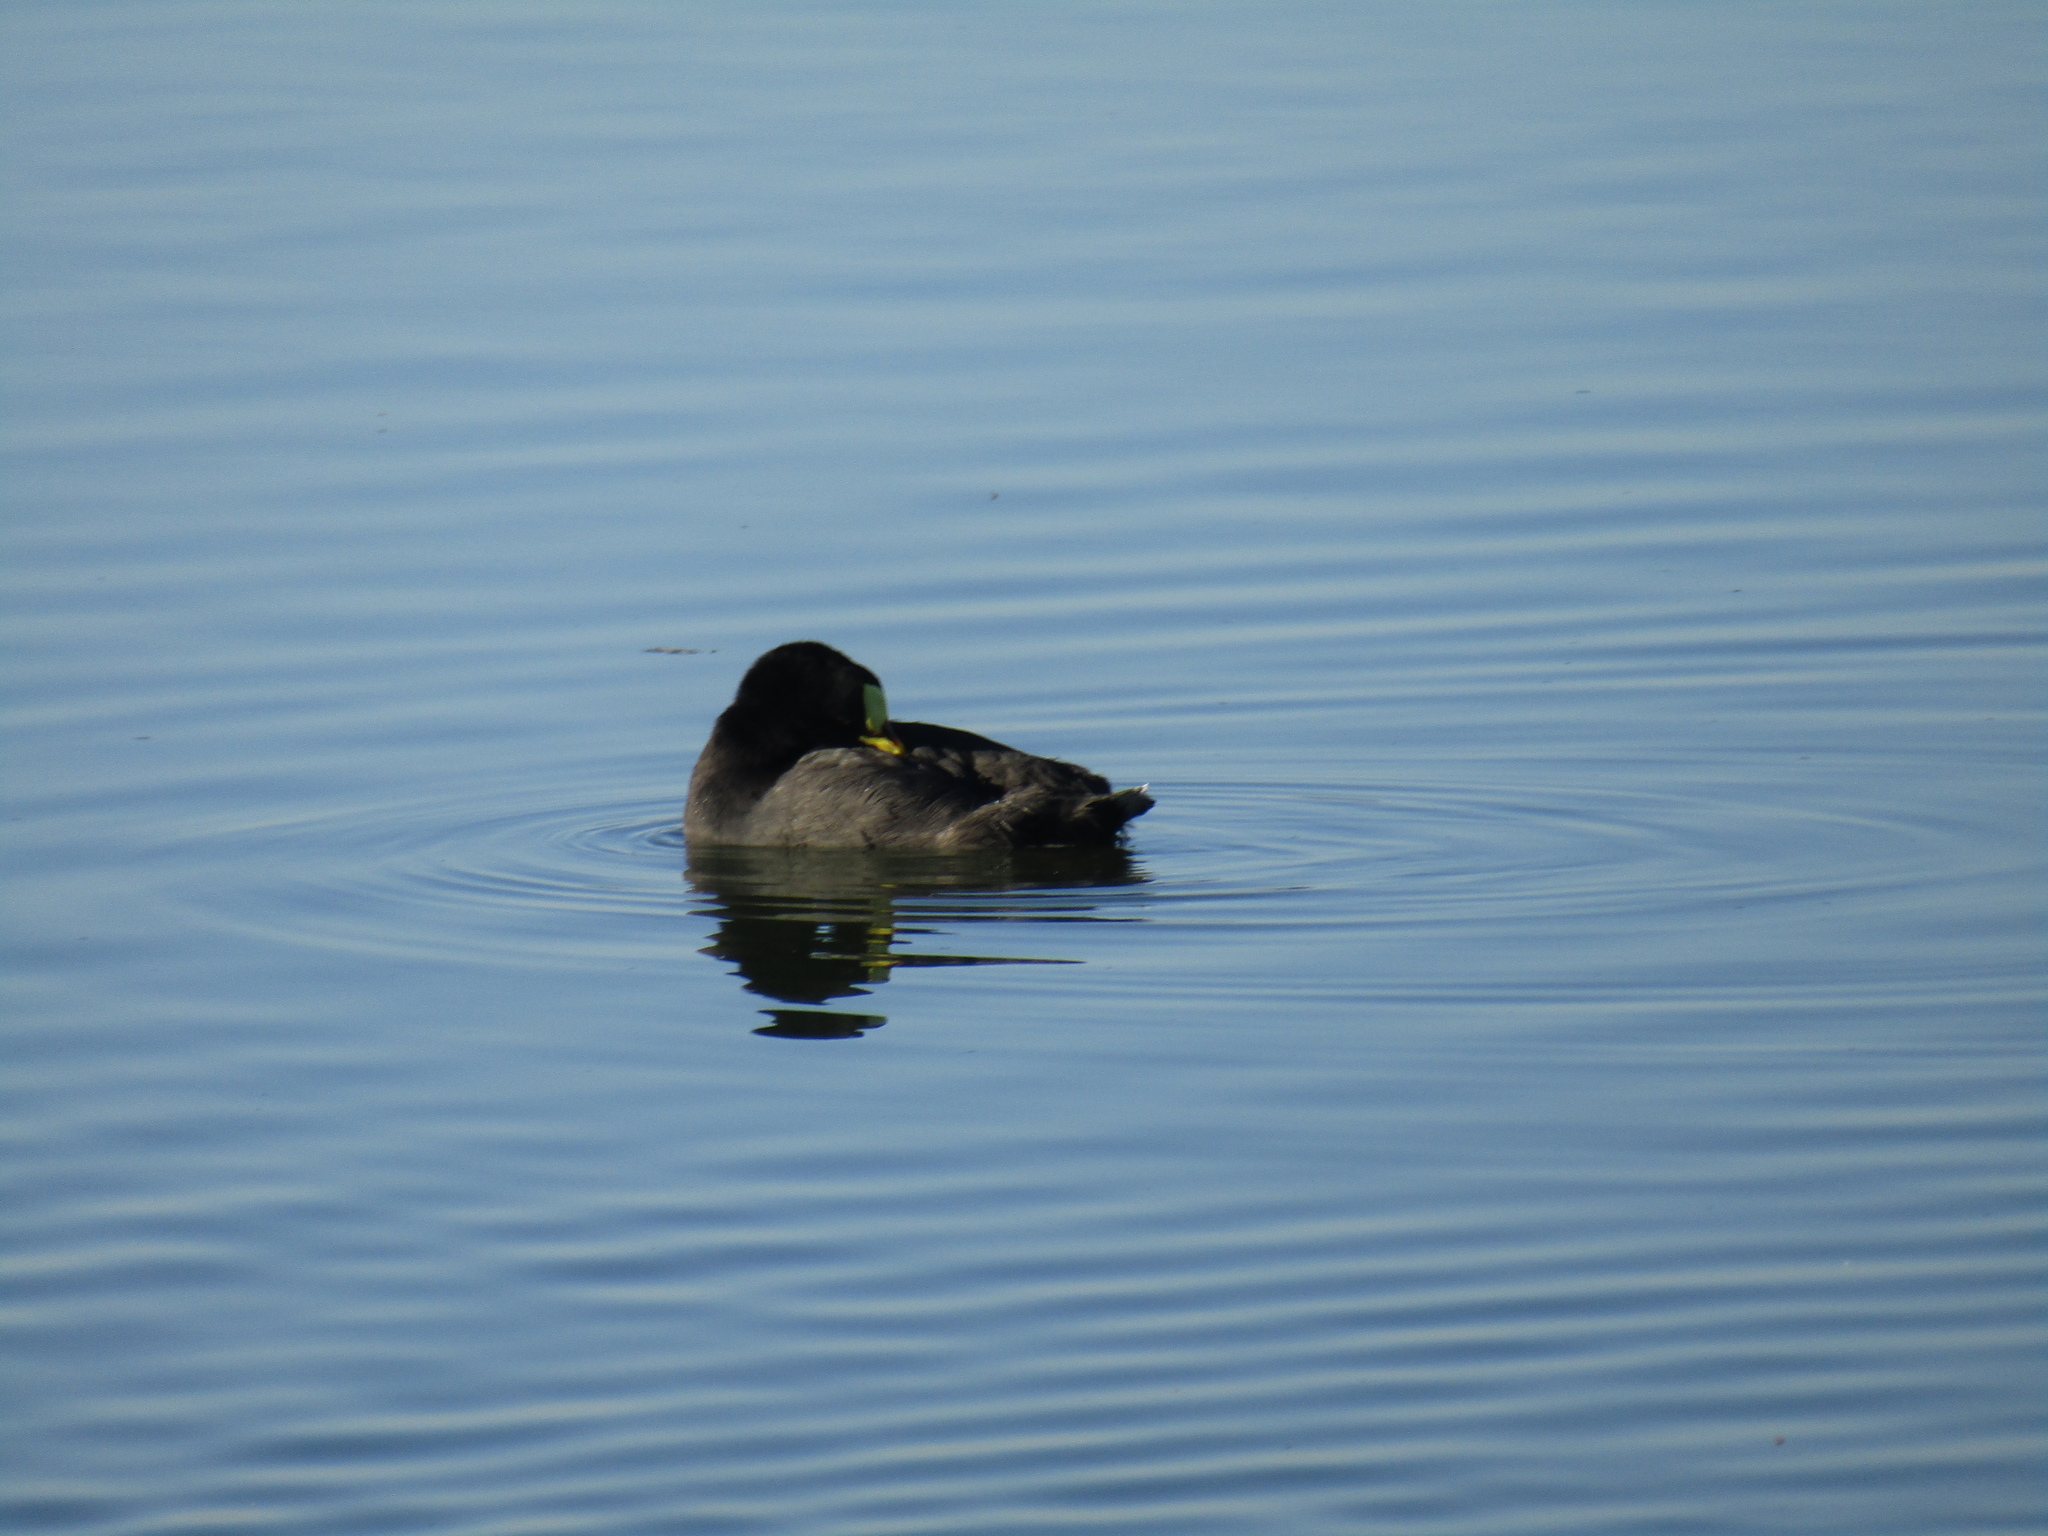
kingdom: Animalia
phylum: Chordata
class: Aves
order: Gruiformes
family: Rallidae
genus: Fulica
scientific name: Fulica armillata
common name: Red-gartered coot
